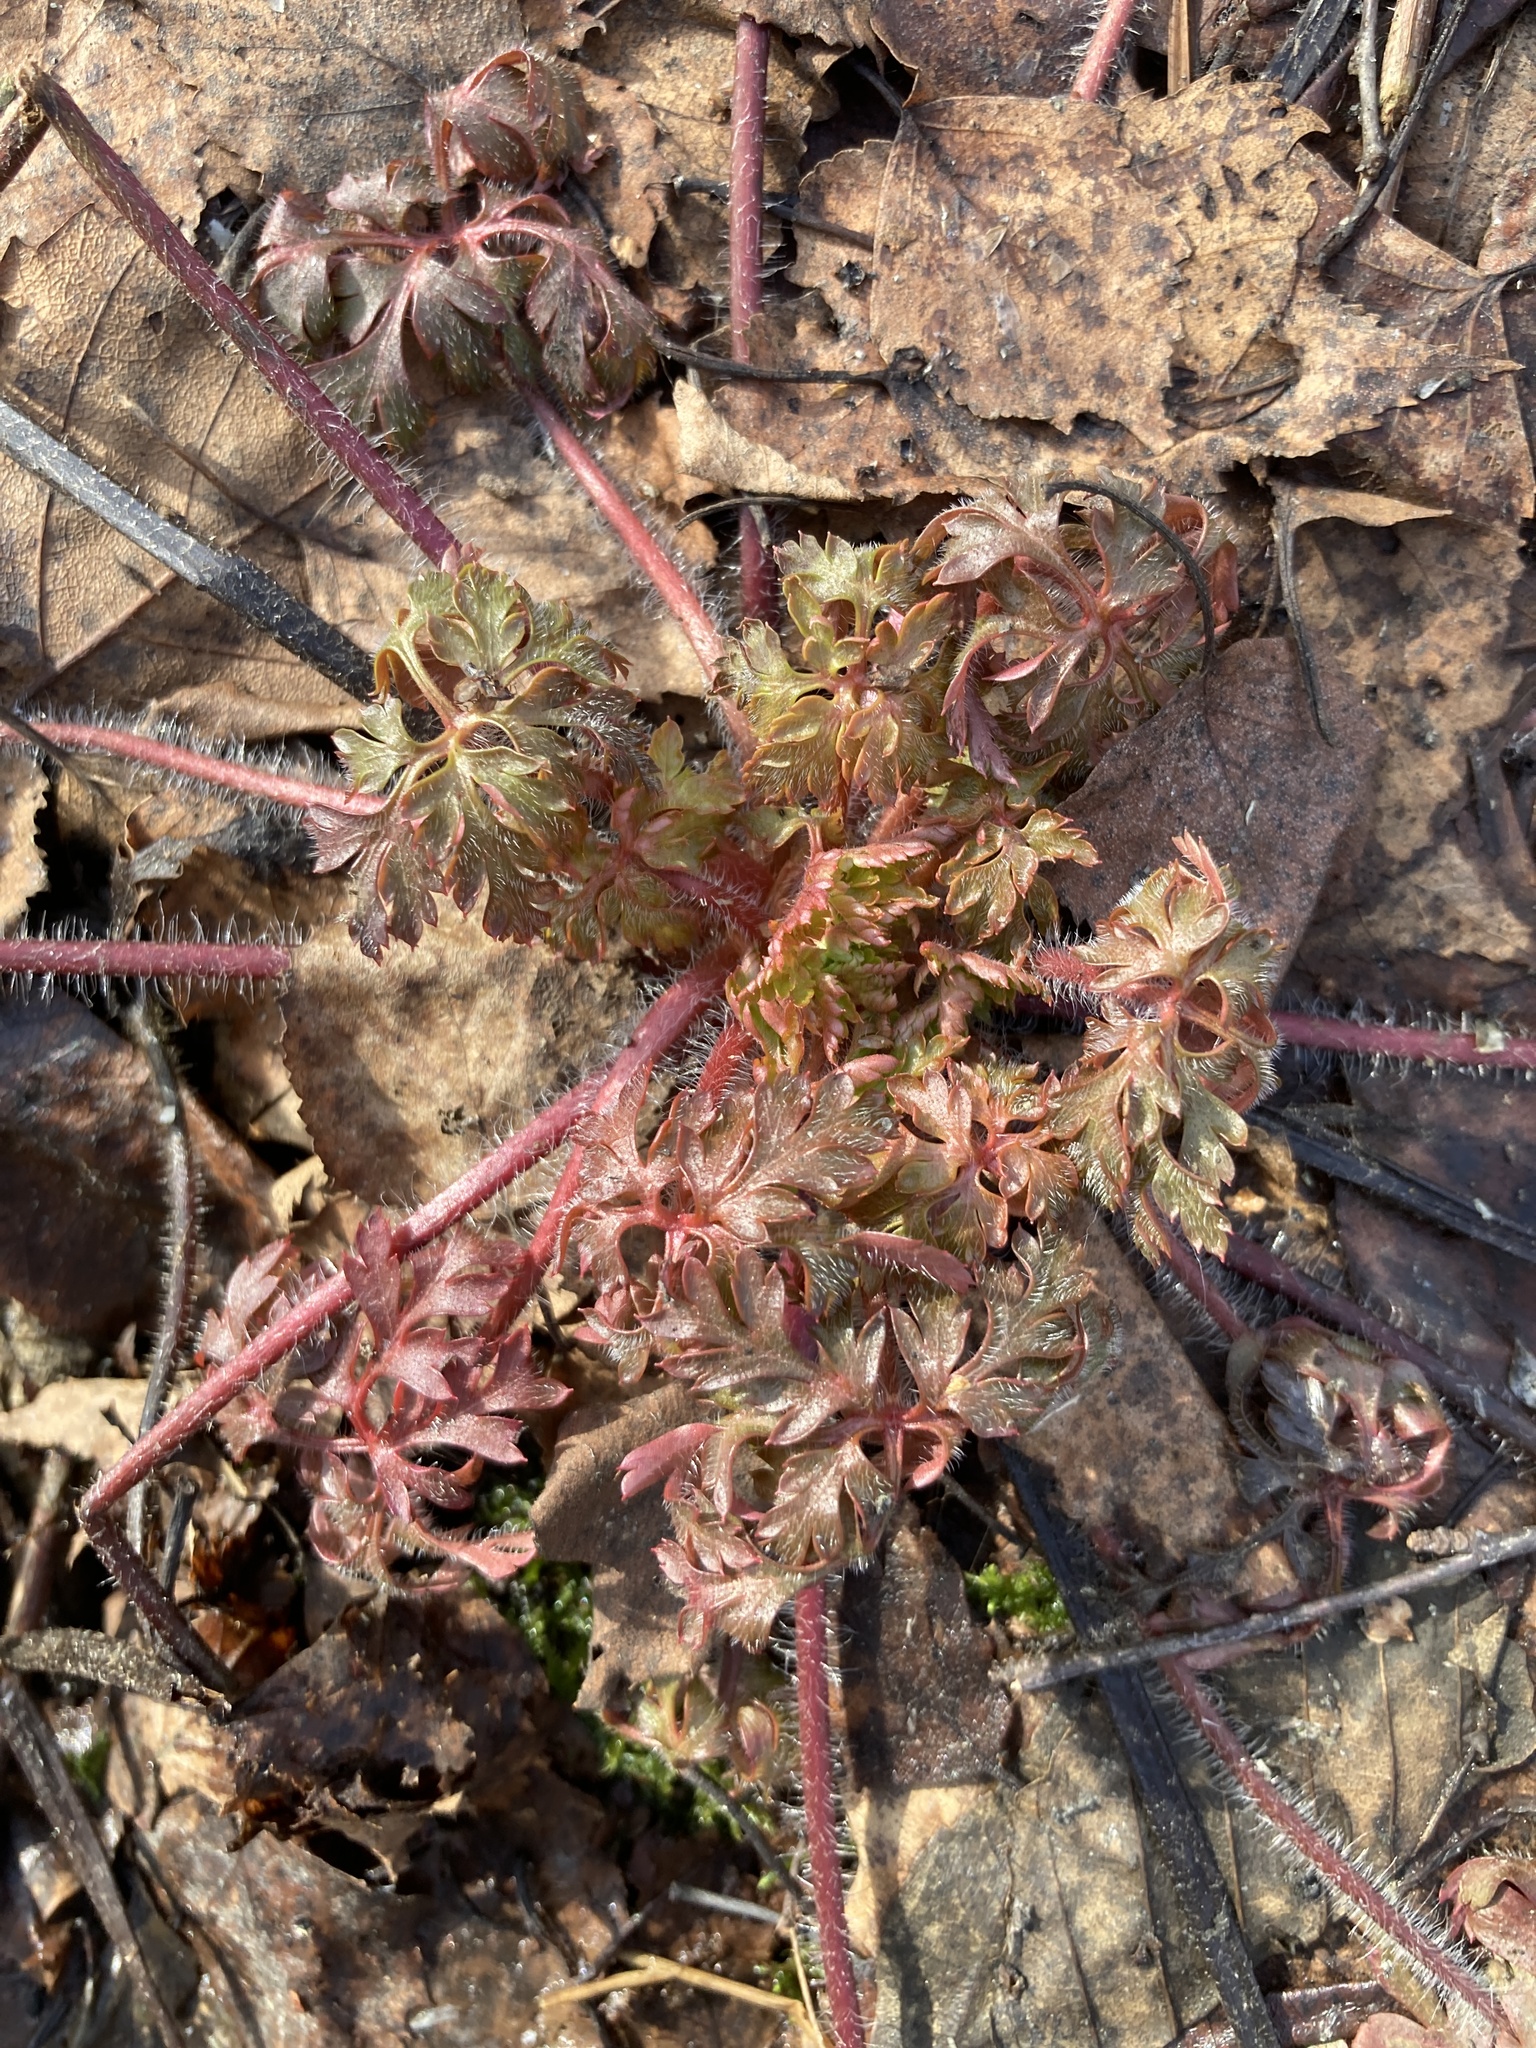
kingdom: Plantae
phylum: Tracheophyta
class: Magnoliopsida
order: Geraniales
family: Geraniaceae
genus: Geranium
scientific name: Geranium robertianum
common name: Herb-robert
